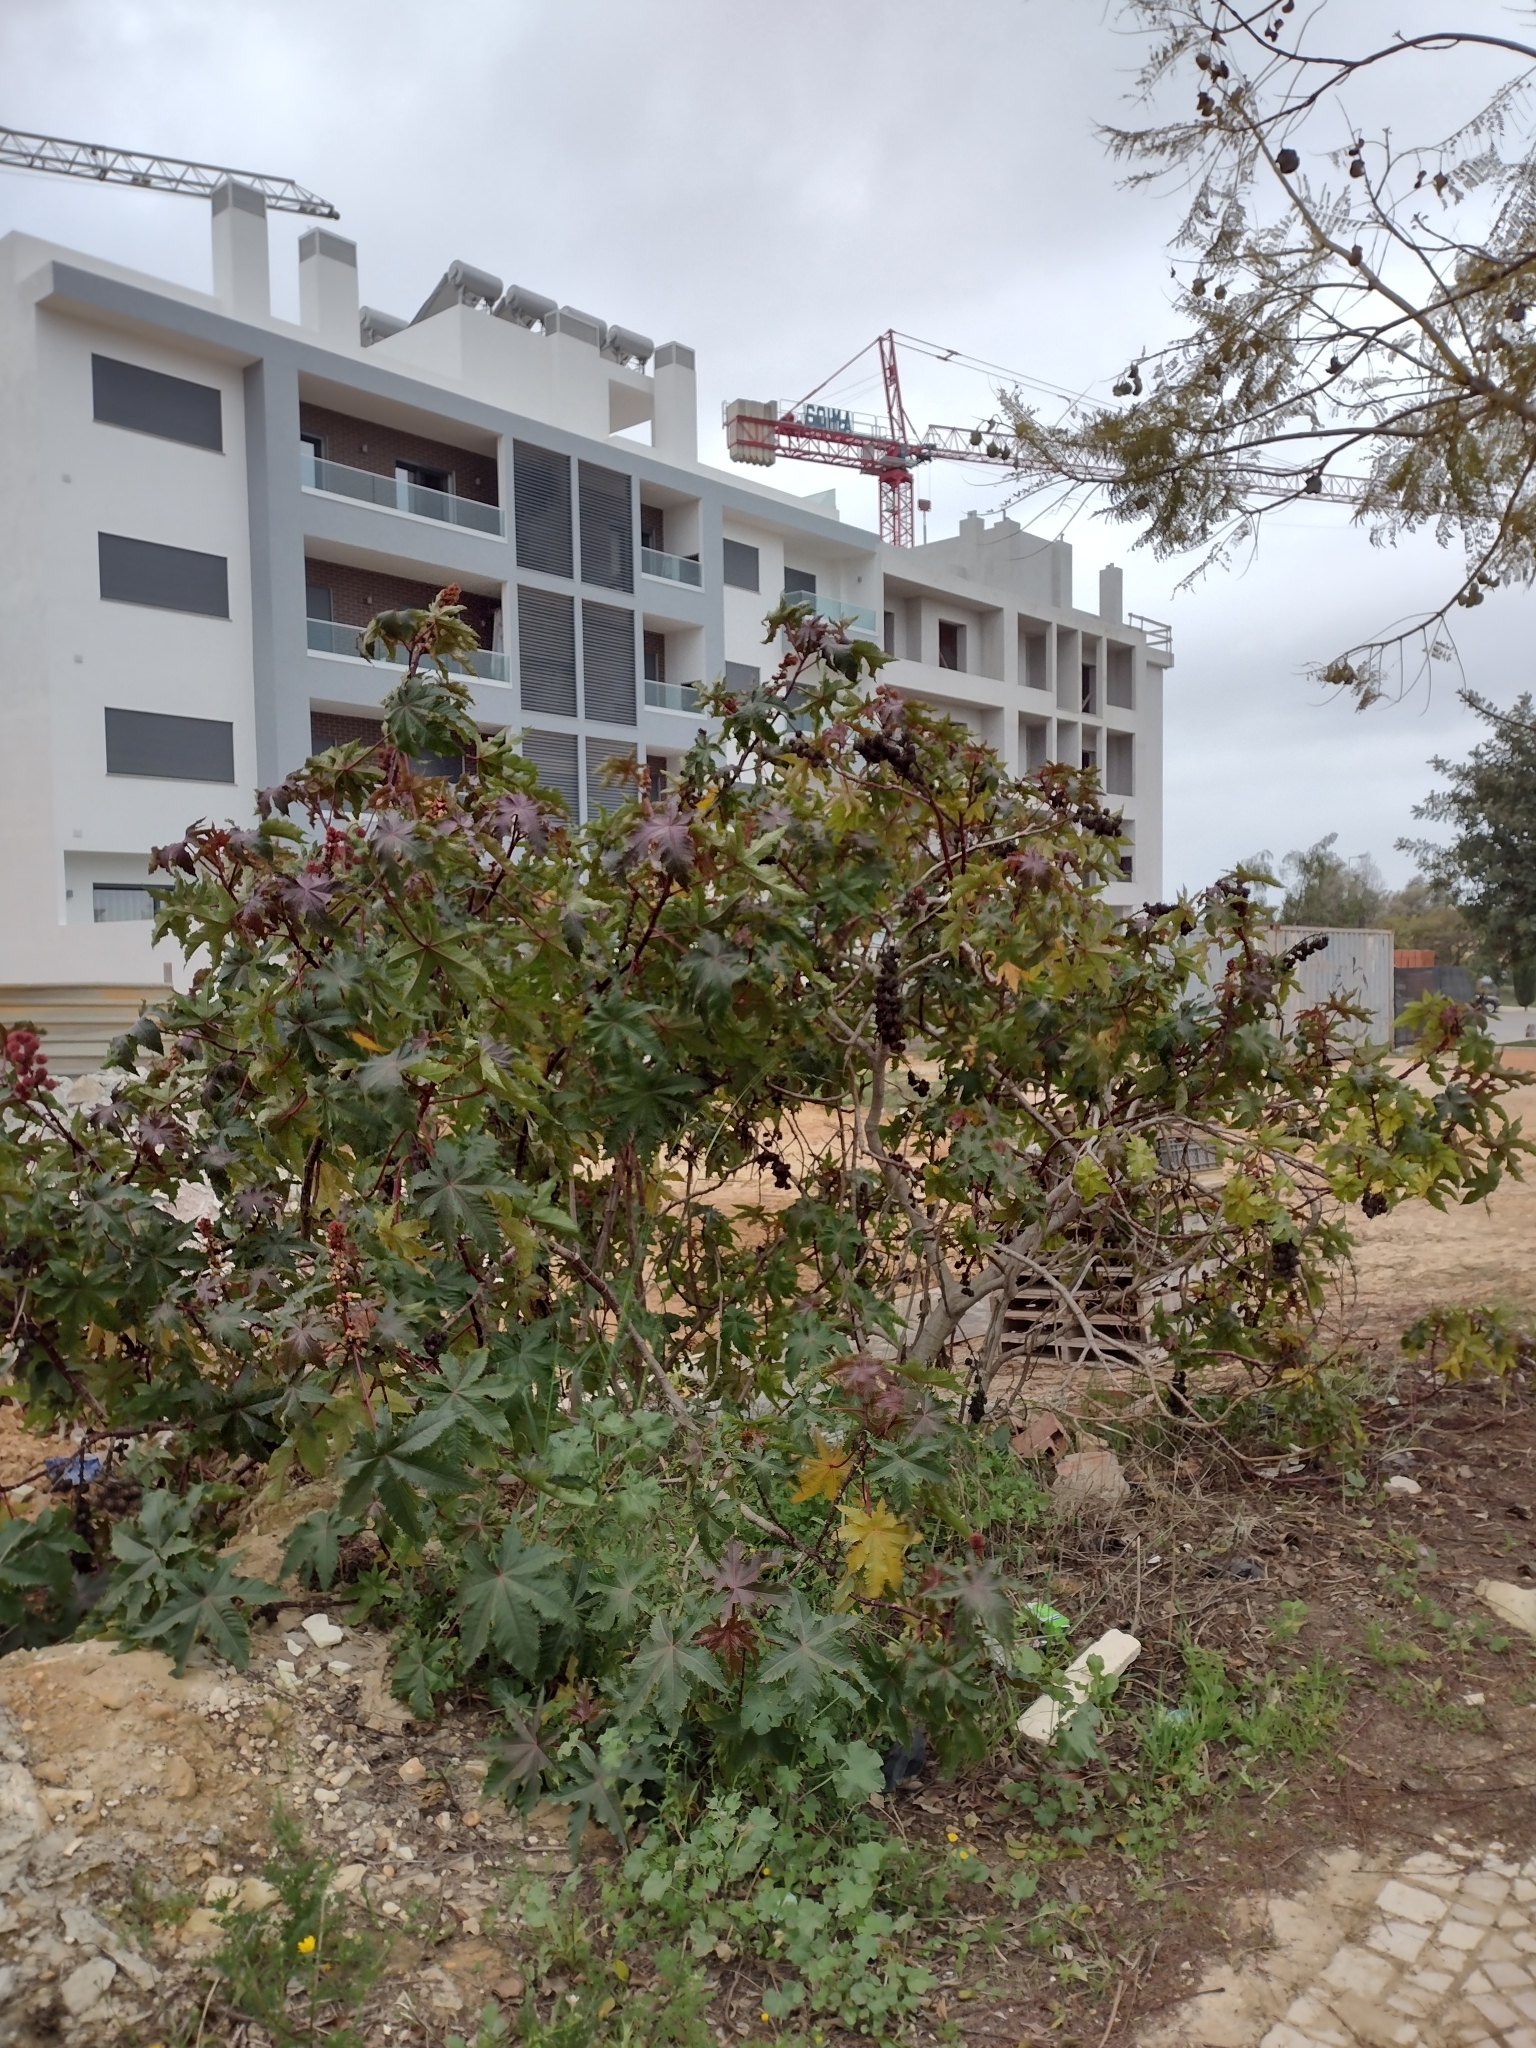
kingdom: Plantae
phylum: Tracheophyta
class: Magnoliopsida
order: Malpighiales
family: Euphorbiaceae
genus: Ricinus
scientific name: Ricinus communis
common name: Castor-oil-plant
